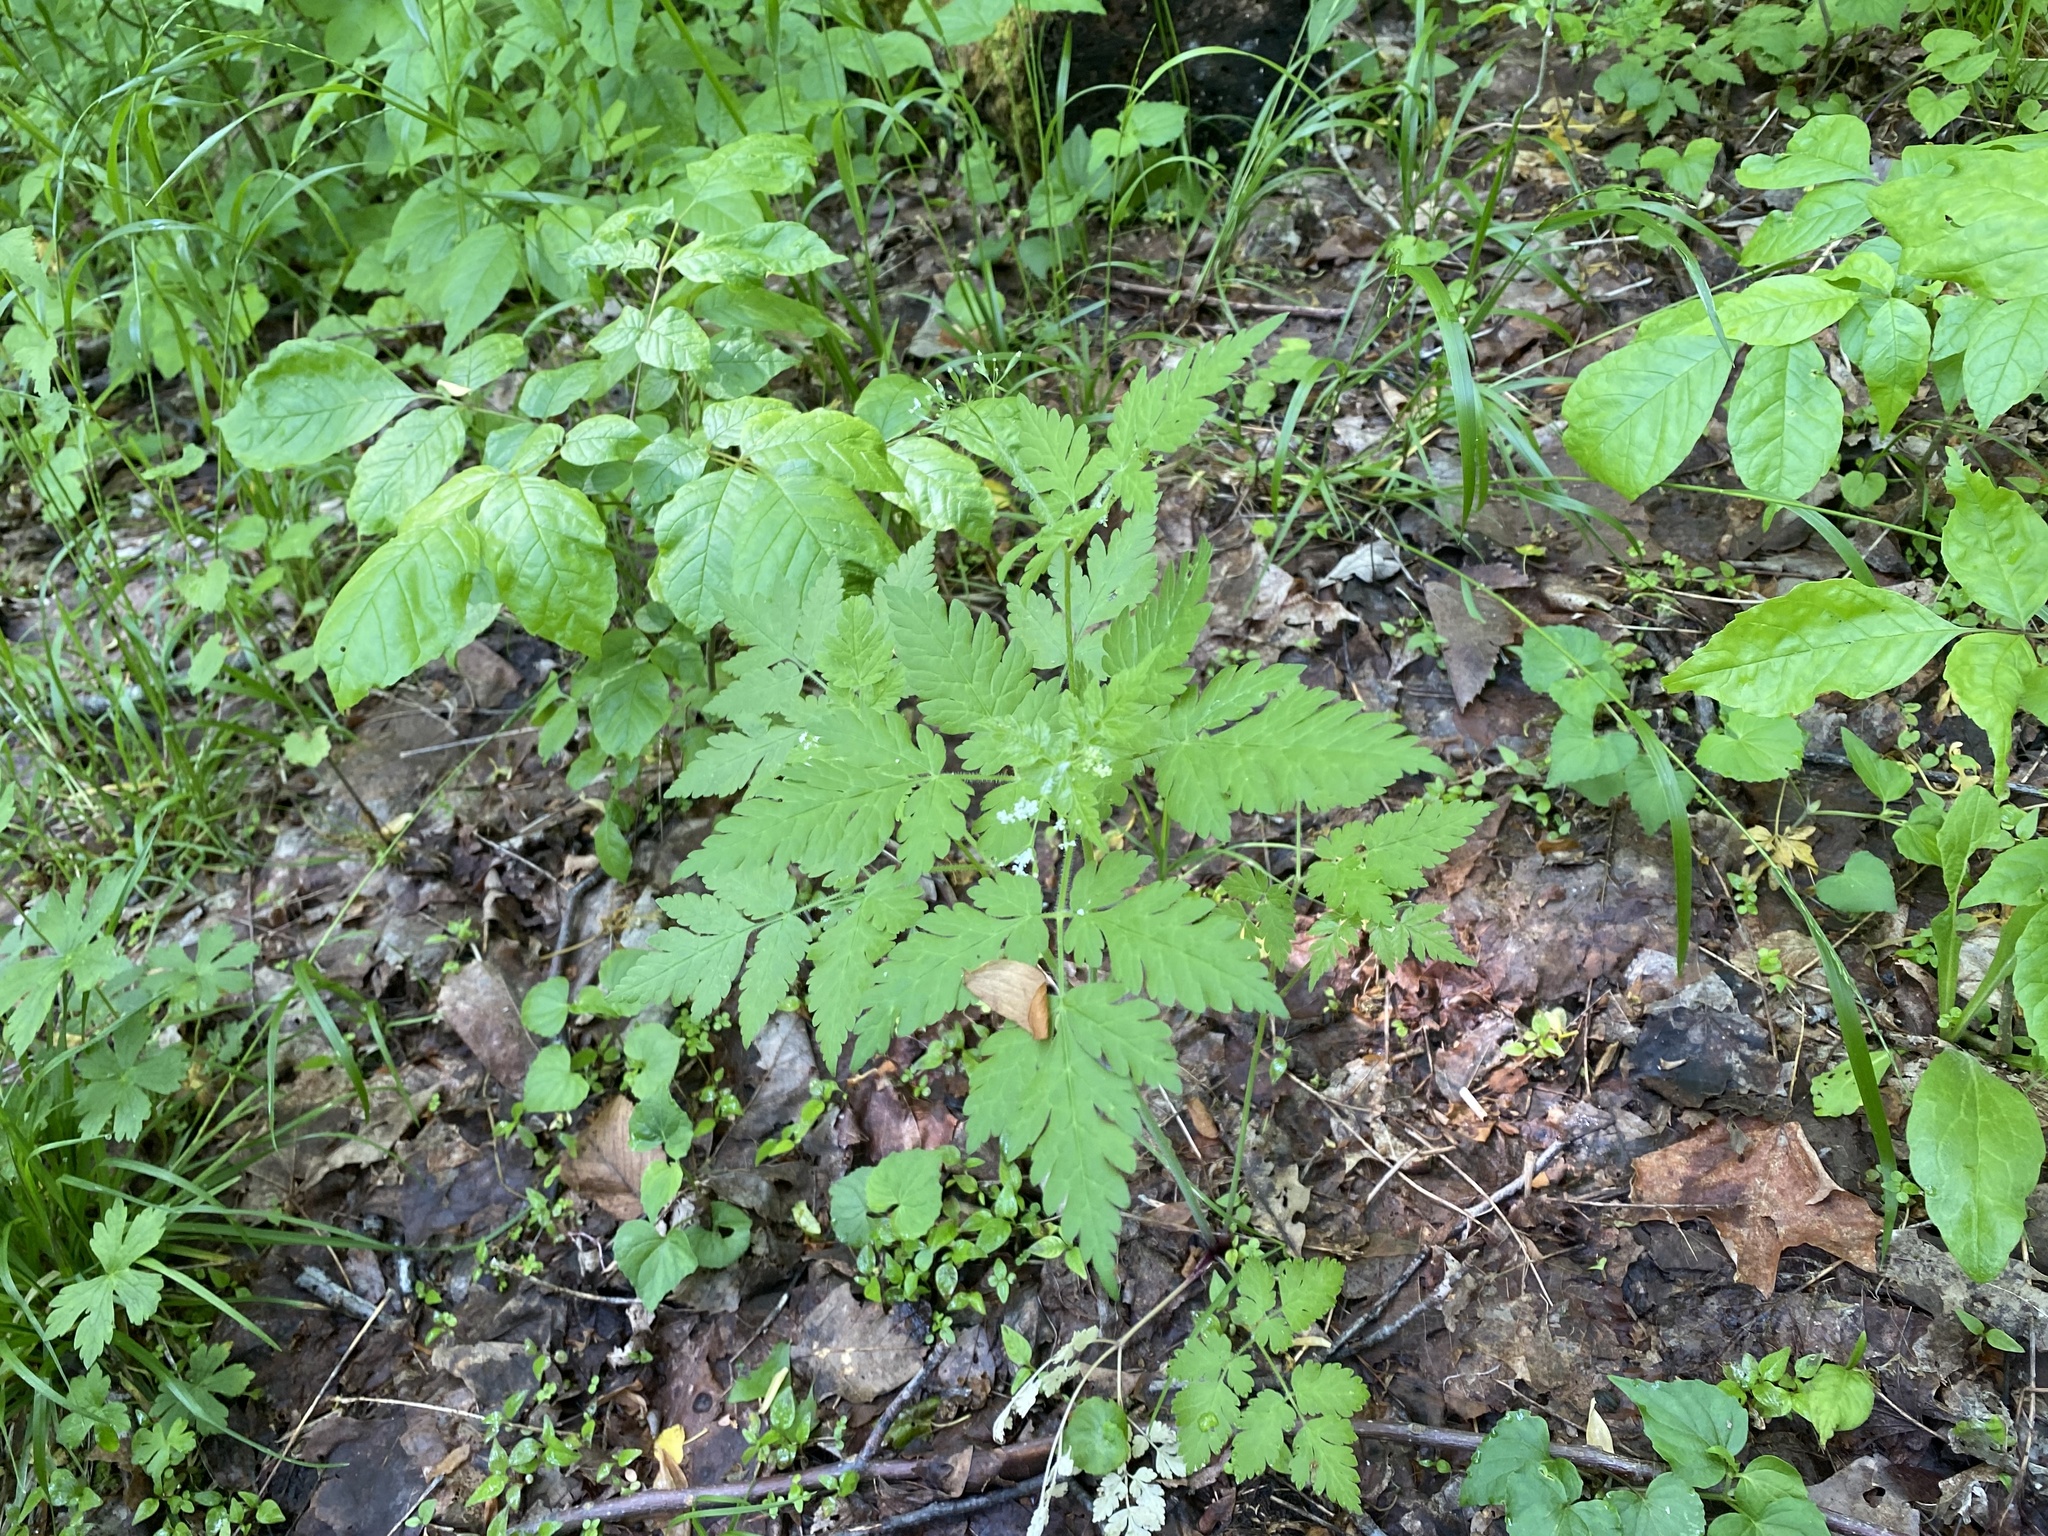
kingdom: Plantae
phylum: Tracheophyta
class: Magnoliopsida
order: Apiales
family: Apiaceae
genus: Osmorhiza
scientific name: Osmorhiza claytonii
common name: Hairy sweet cicely
